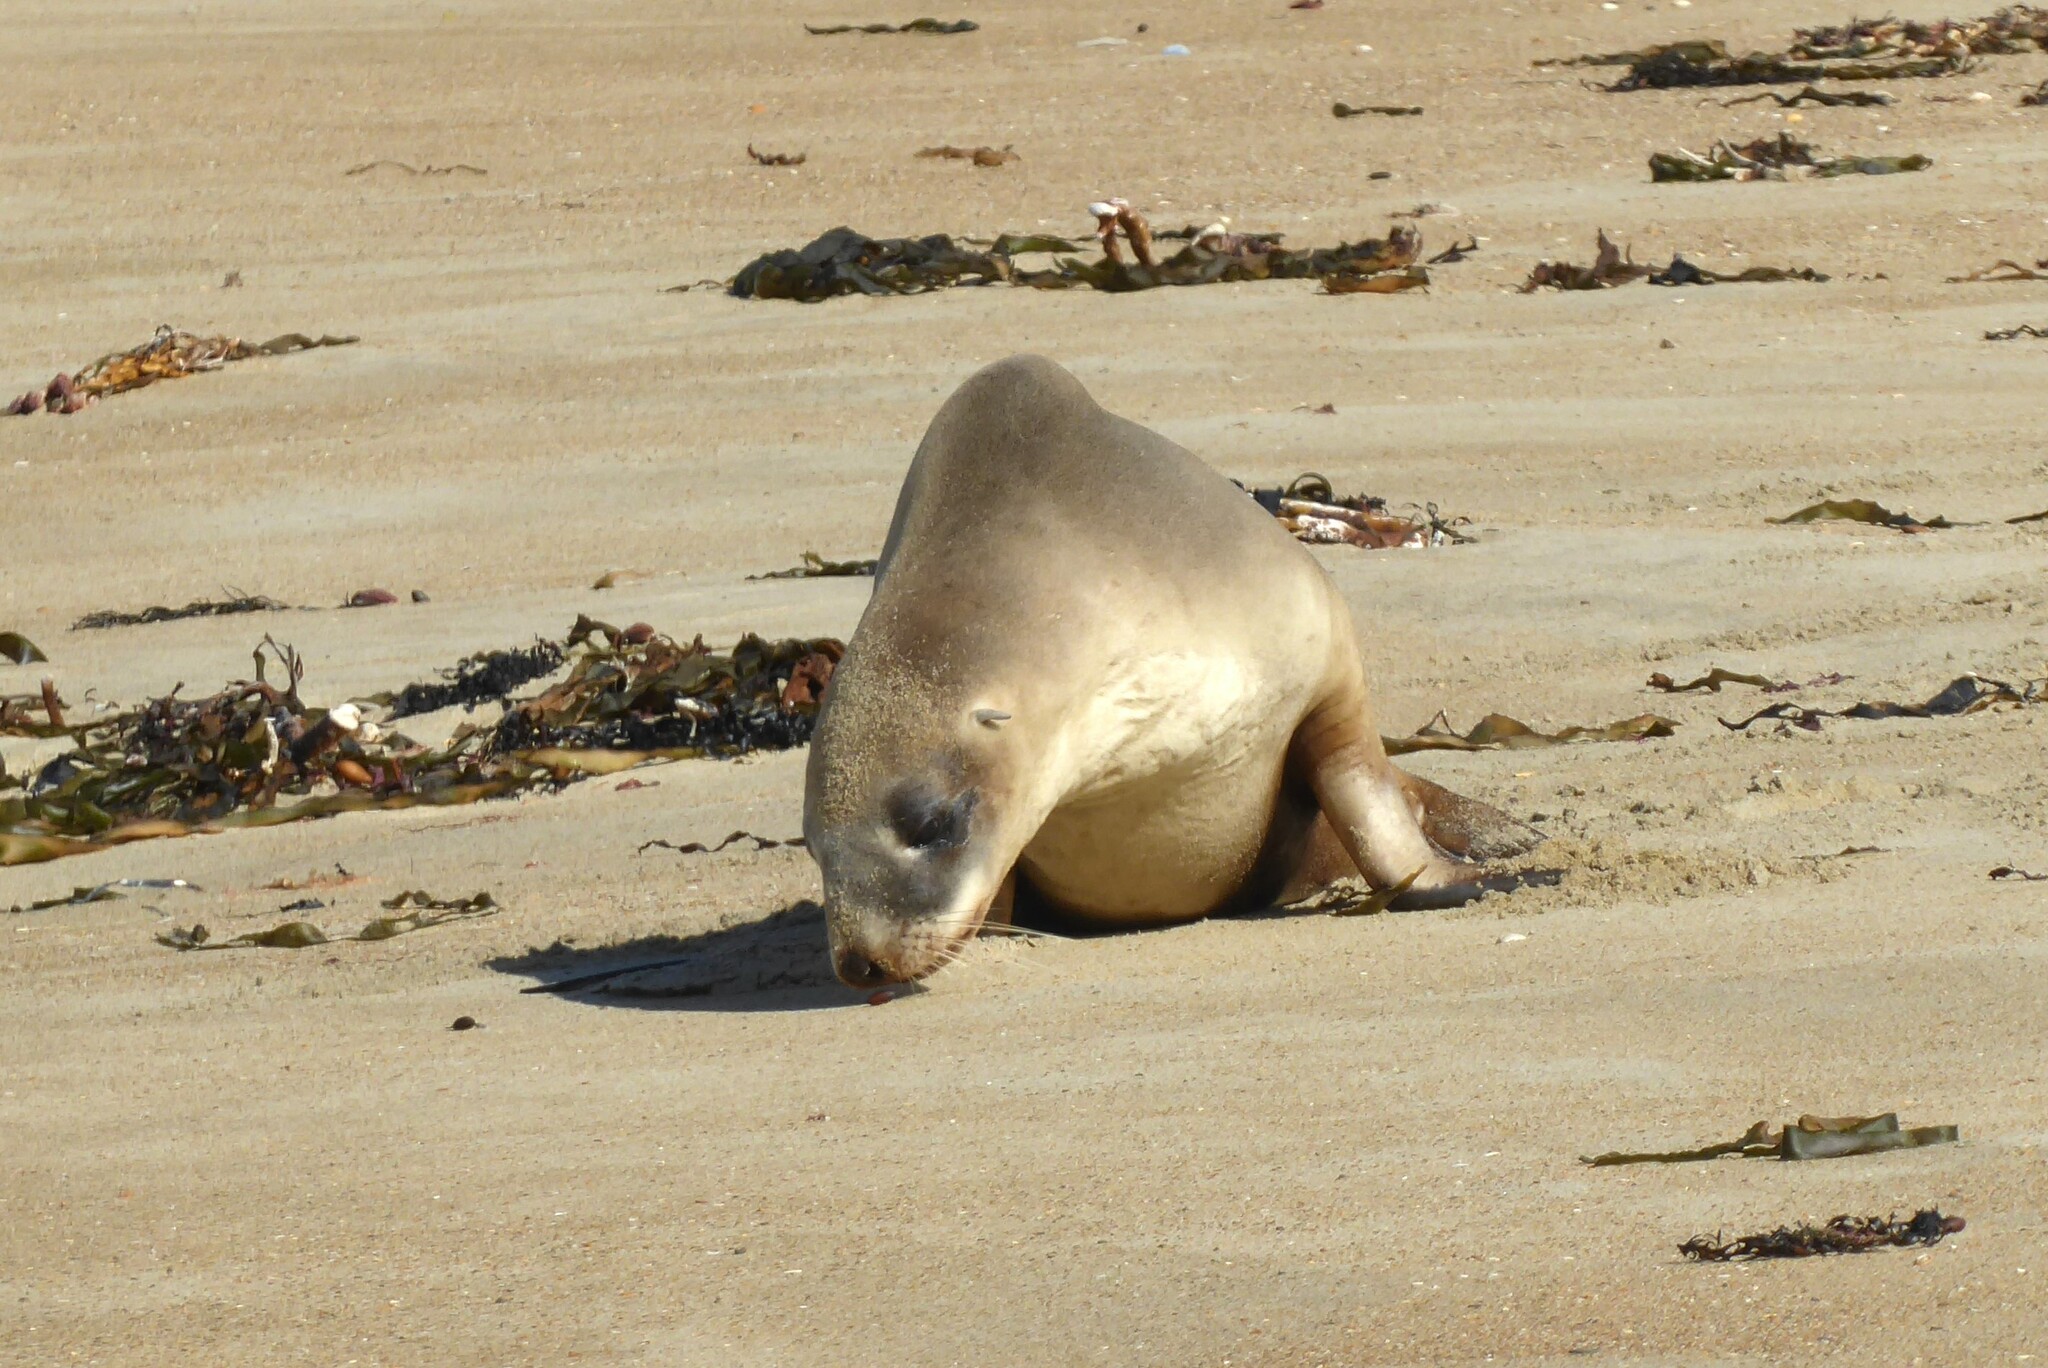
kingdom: Animalia
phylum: Chordata
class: Mammalia
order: Carnivora
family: Otariidae
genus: Phocarctos
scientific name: Phocarctos hookeri
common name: New zealand sea lion
